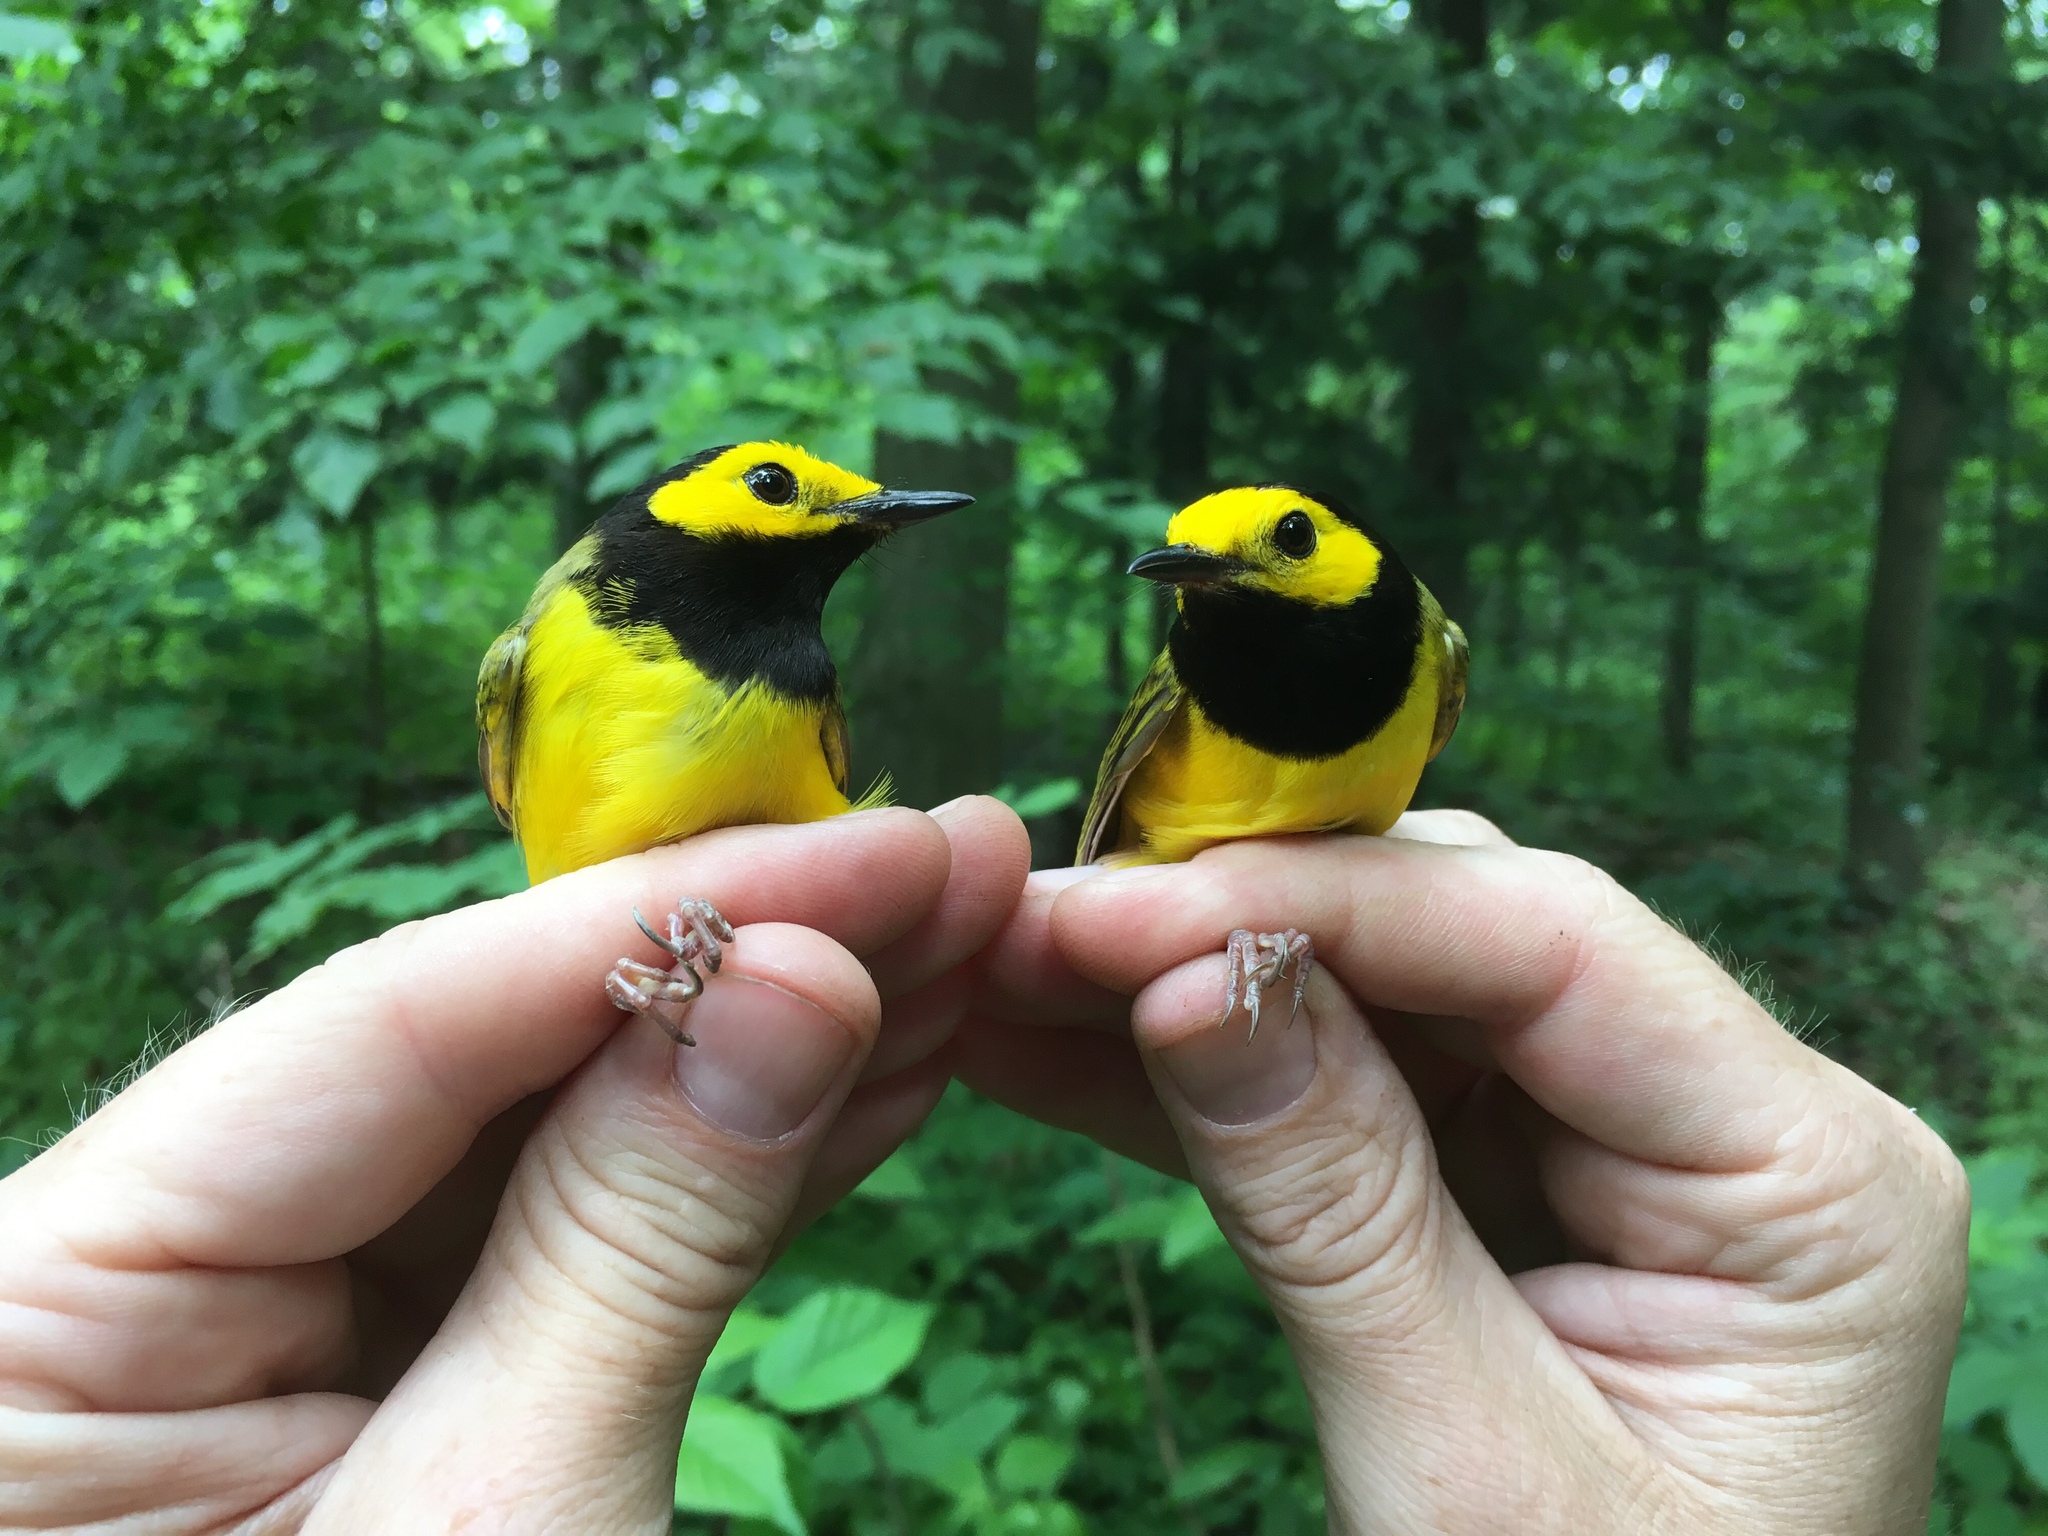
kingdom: Animalia
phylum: Chordata
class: Aves
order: Passeriformes
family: Parulidae
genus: Setophaga
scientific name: Setophaga citrina
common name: Hooded warbler
